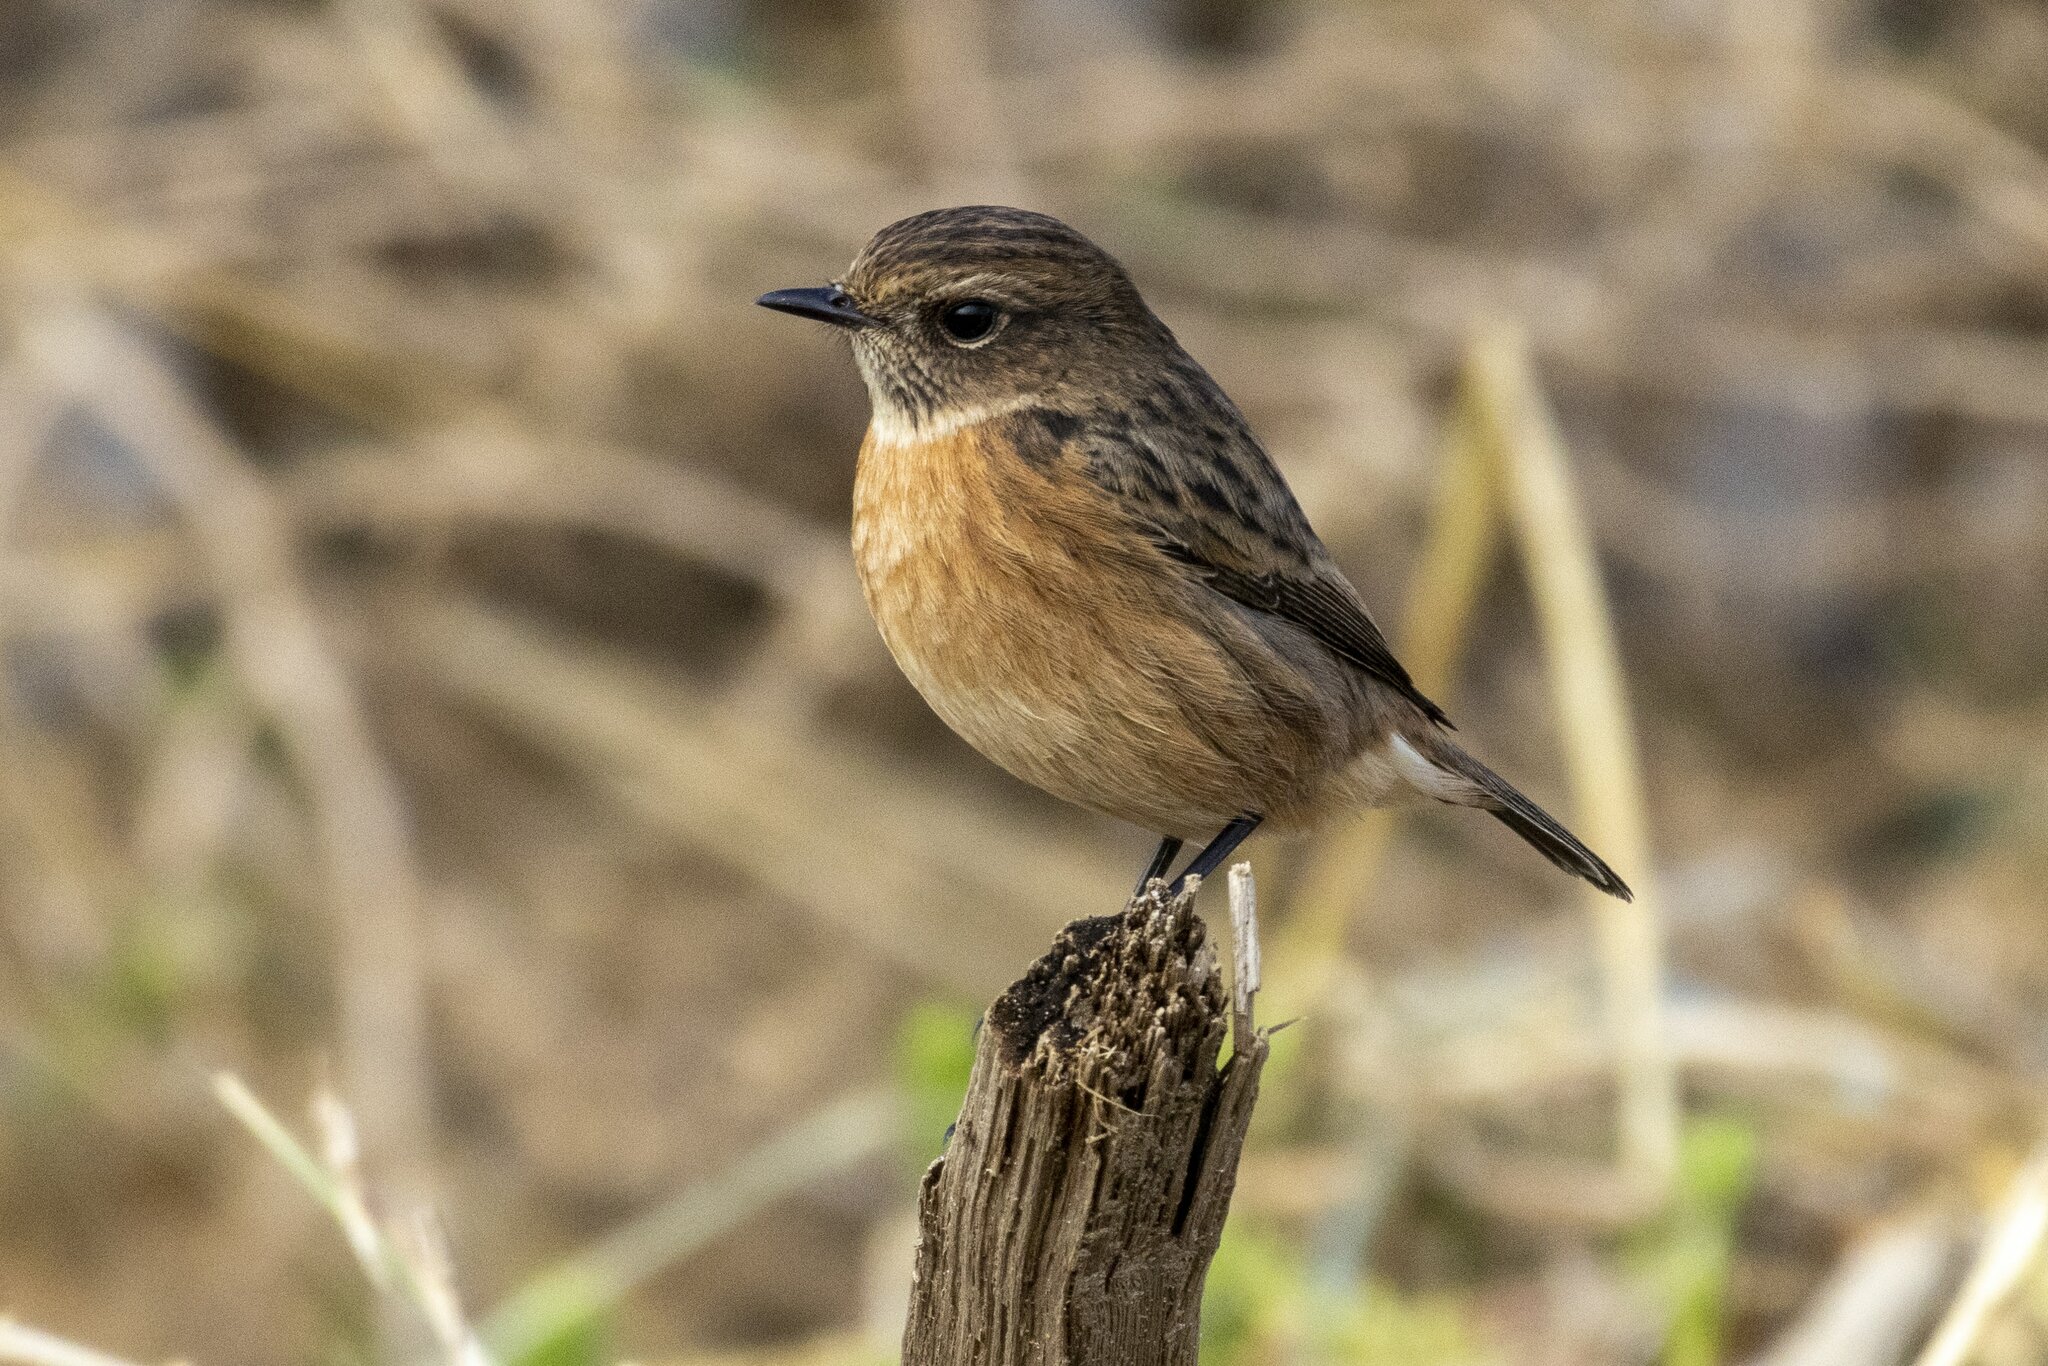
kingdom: Animalia
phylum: Chordata
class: Aves
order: Passeriformes
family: Muscicapidae
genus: Saxicola
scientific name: Saxicola rubicola
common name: European stonechat
